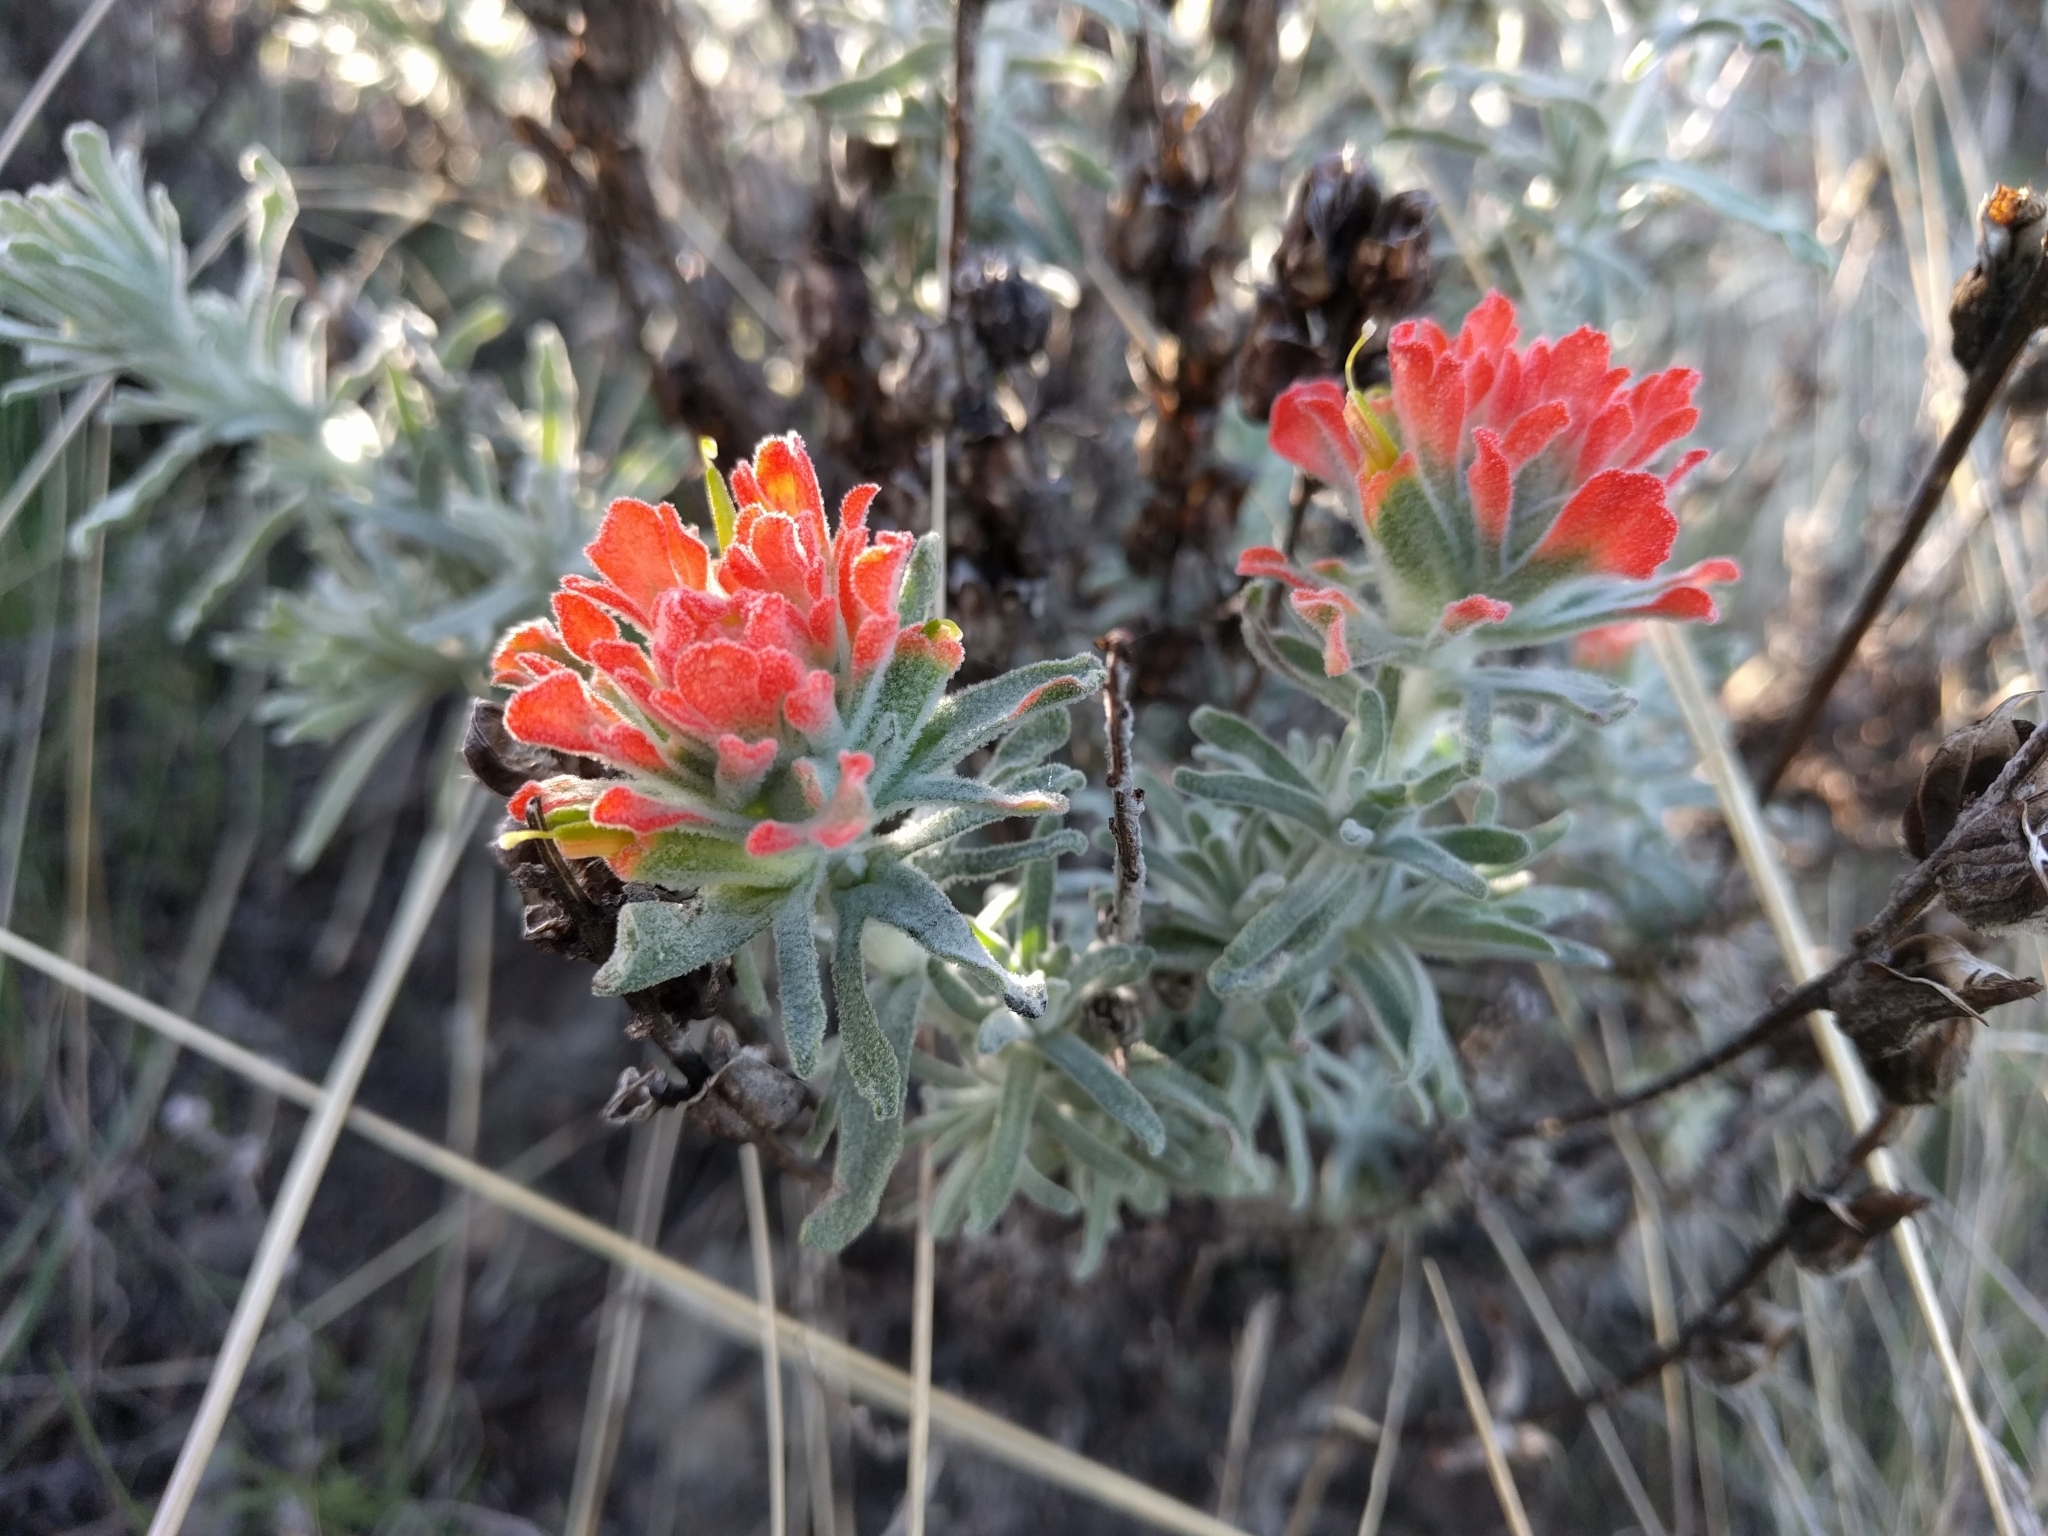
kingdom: Plantae
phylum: Tracheophyta
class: Magnoliopsida
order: Lamiales
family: Orobanchaceae
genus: Castilleja
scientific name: Castilleja foliolosa
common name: Woolly indian paintbrush
